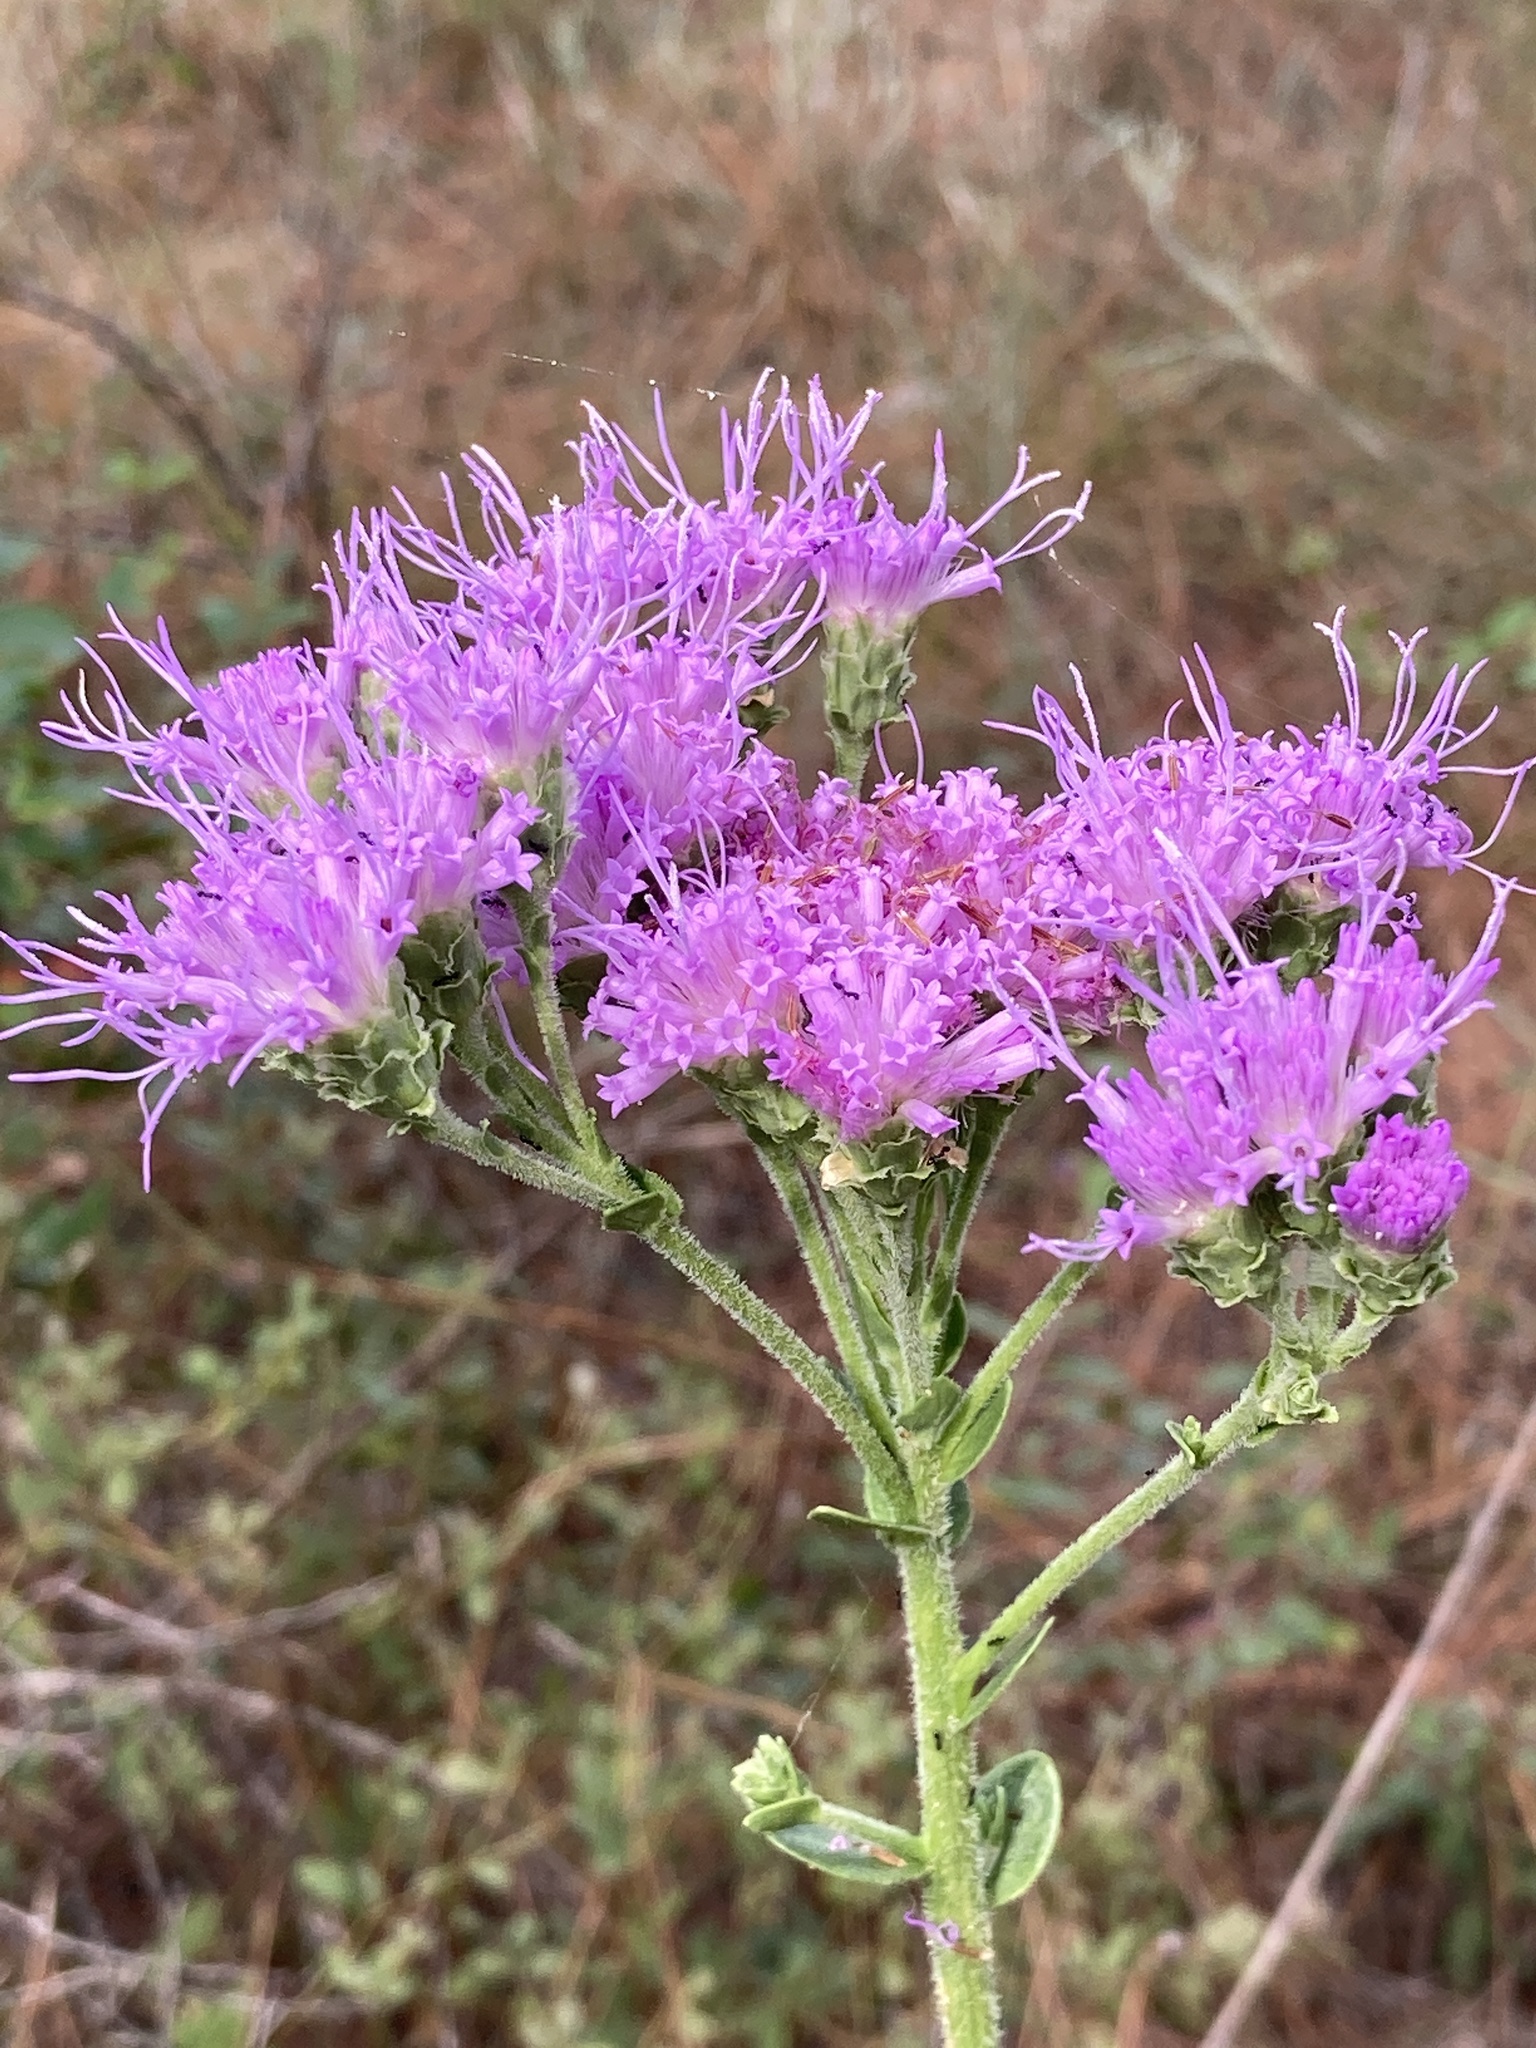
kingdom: Plantae
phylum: Tracheophyta
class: Magnoliopsida
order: Asterales
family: Asteraceae
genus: Carphephorus
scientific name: Carphephorus corymbosus
